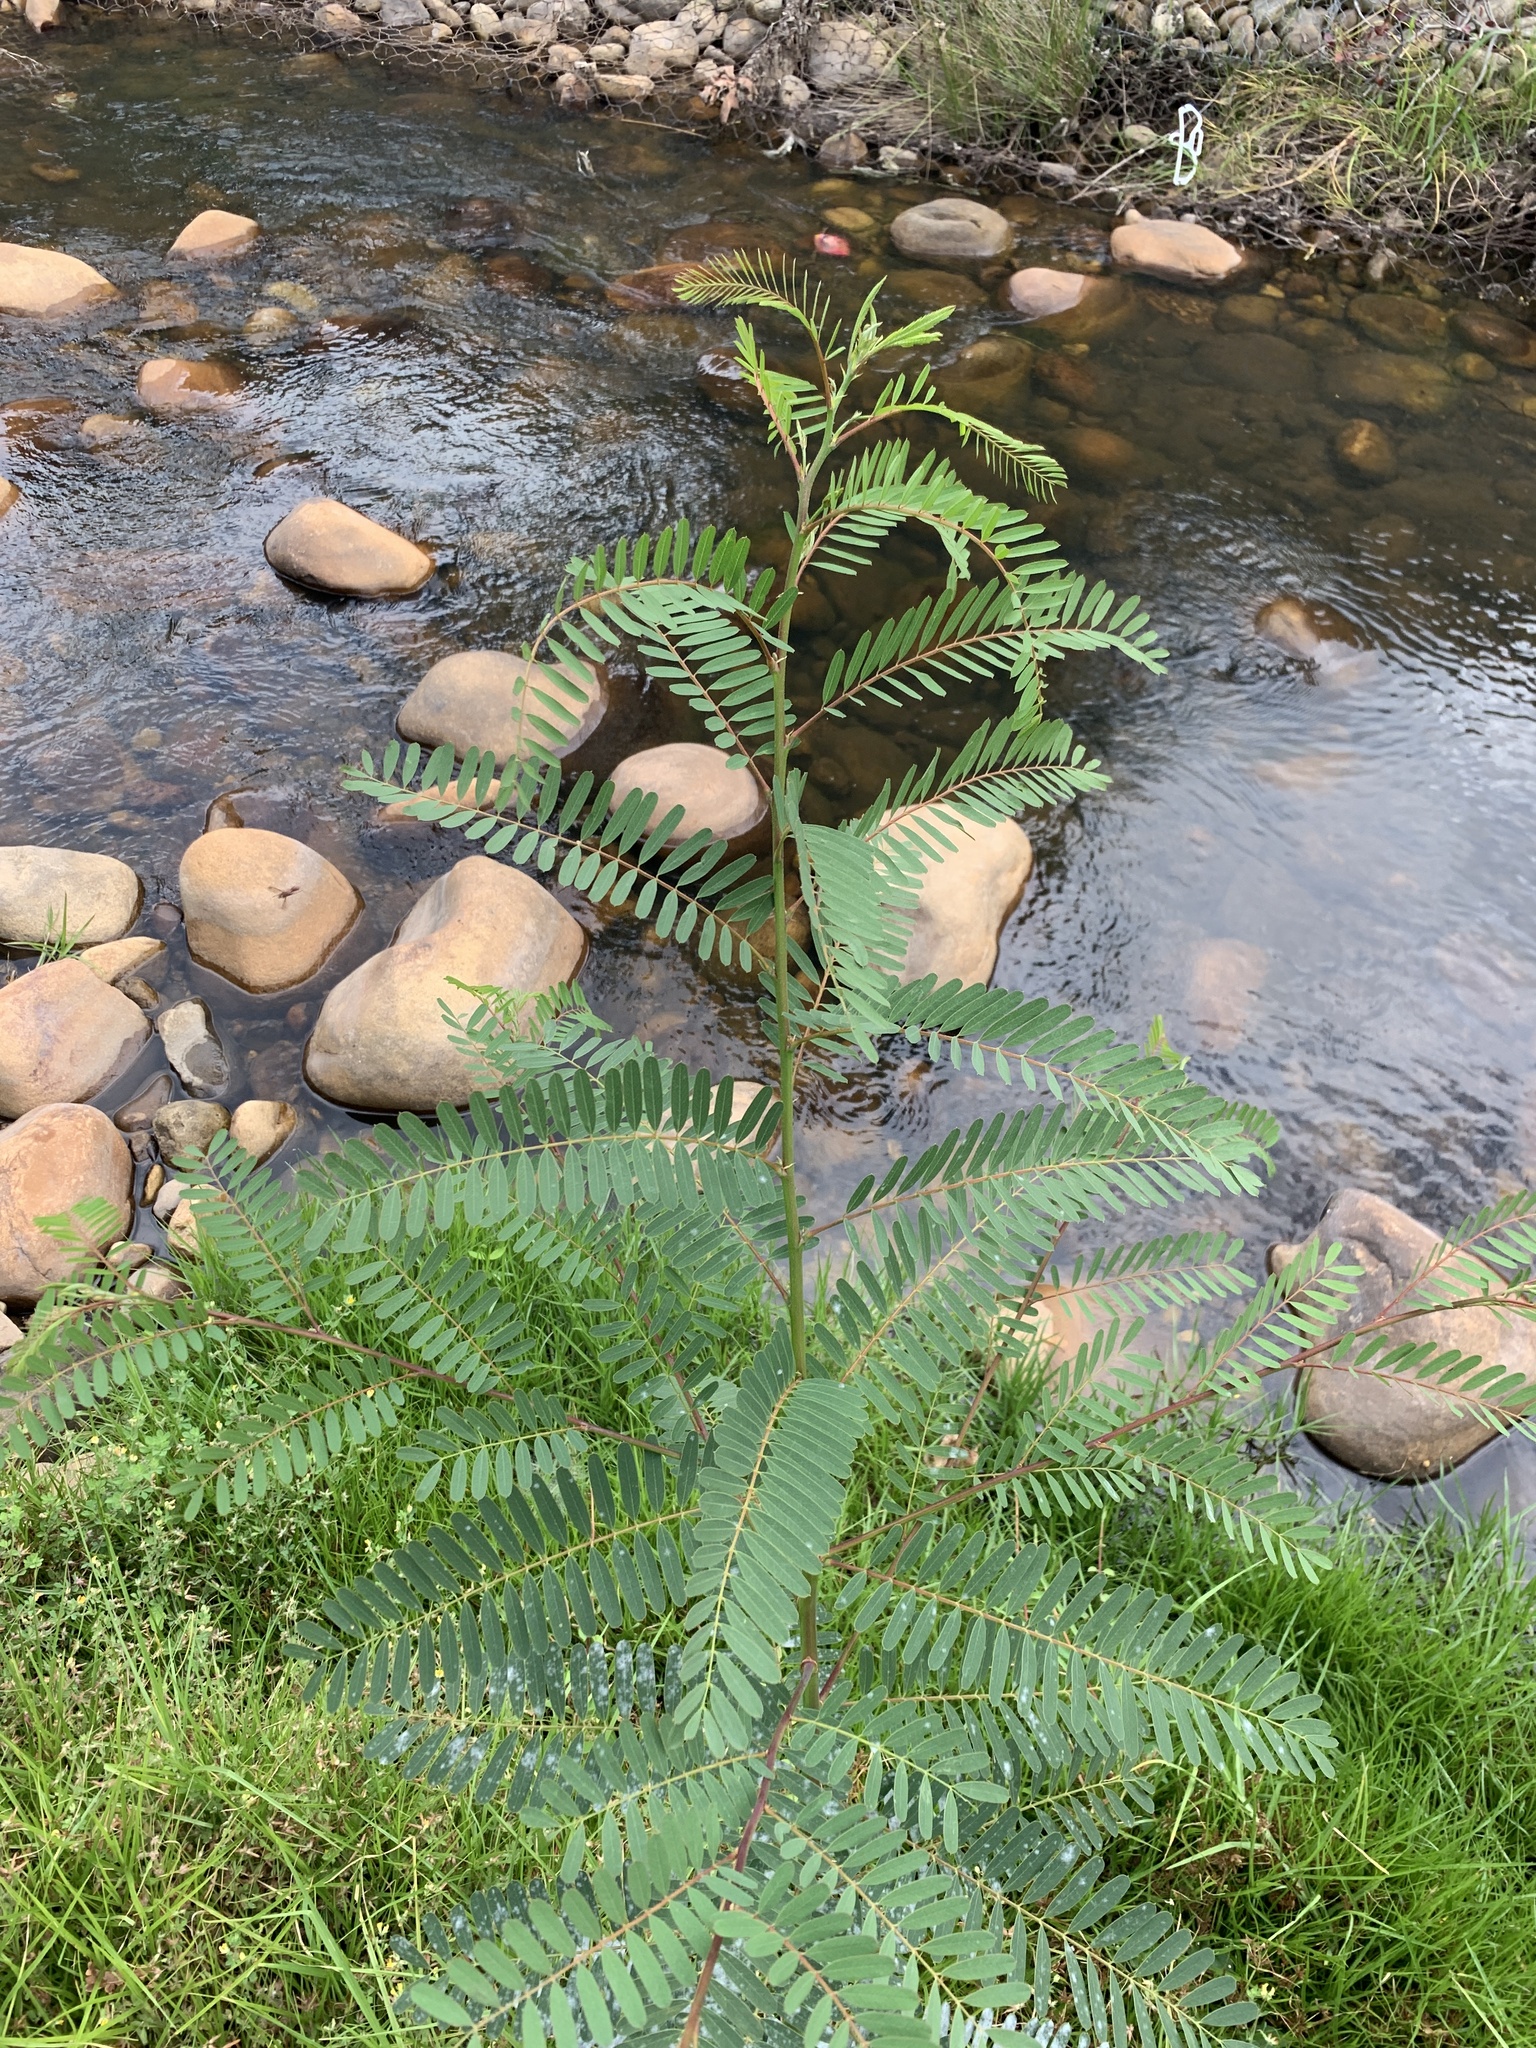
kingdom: Plantae
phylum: Tracheophyta
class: Magnoliopsida
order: Fabales
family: Fabaceae
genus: Sesbania
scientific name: Sesbania punicea
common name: Rattlebox
